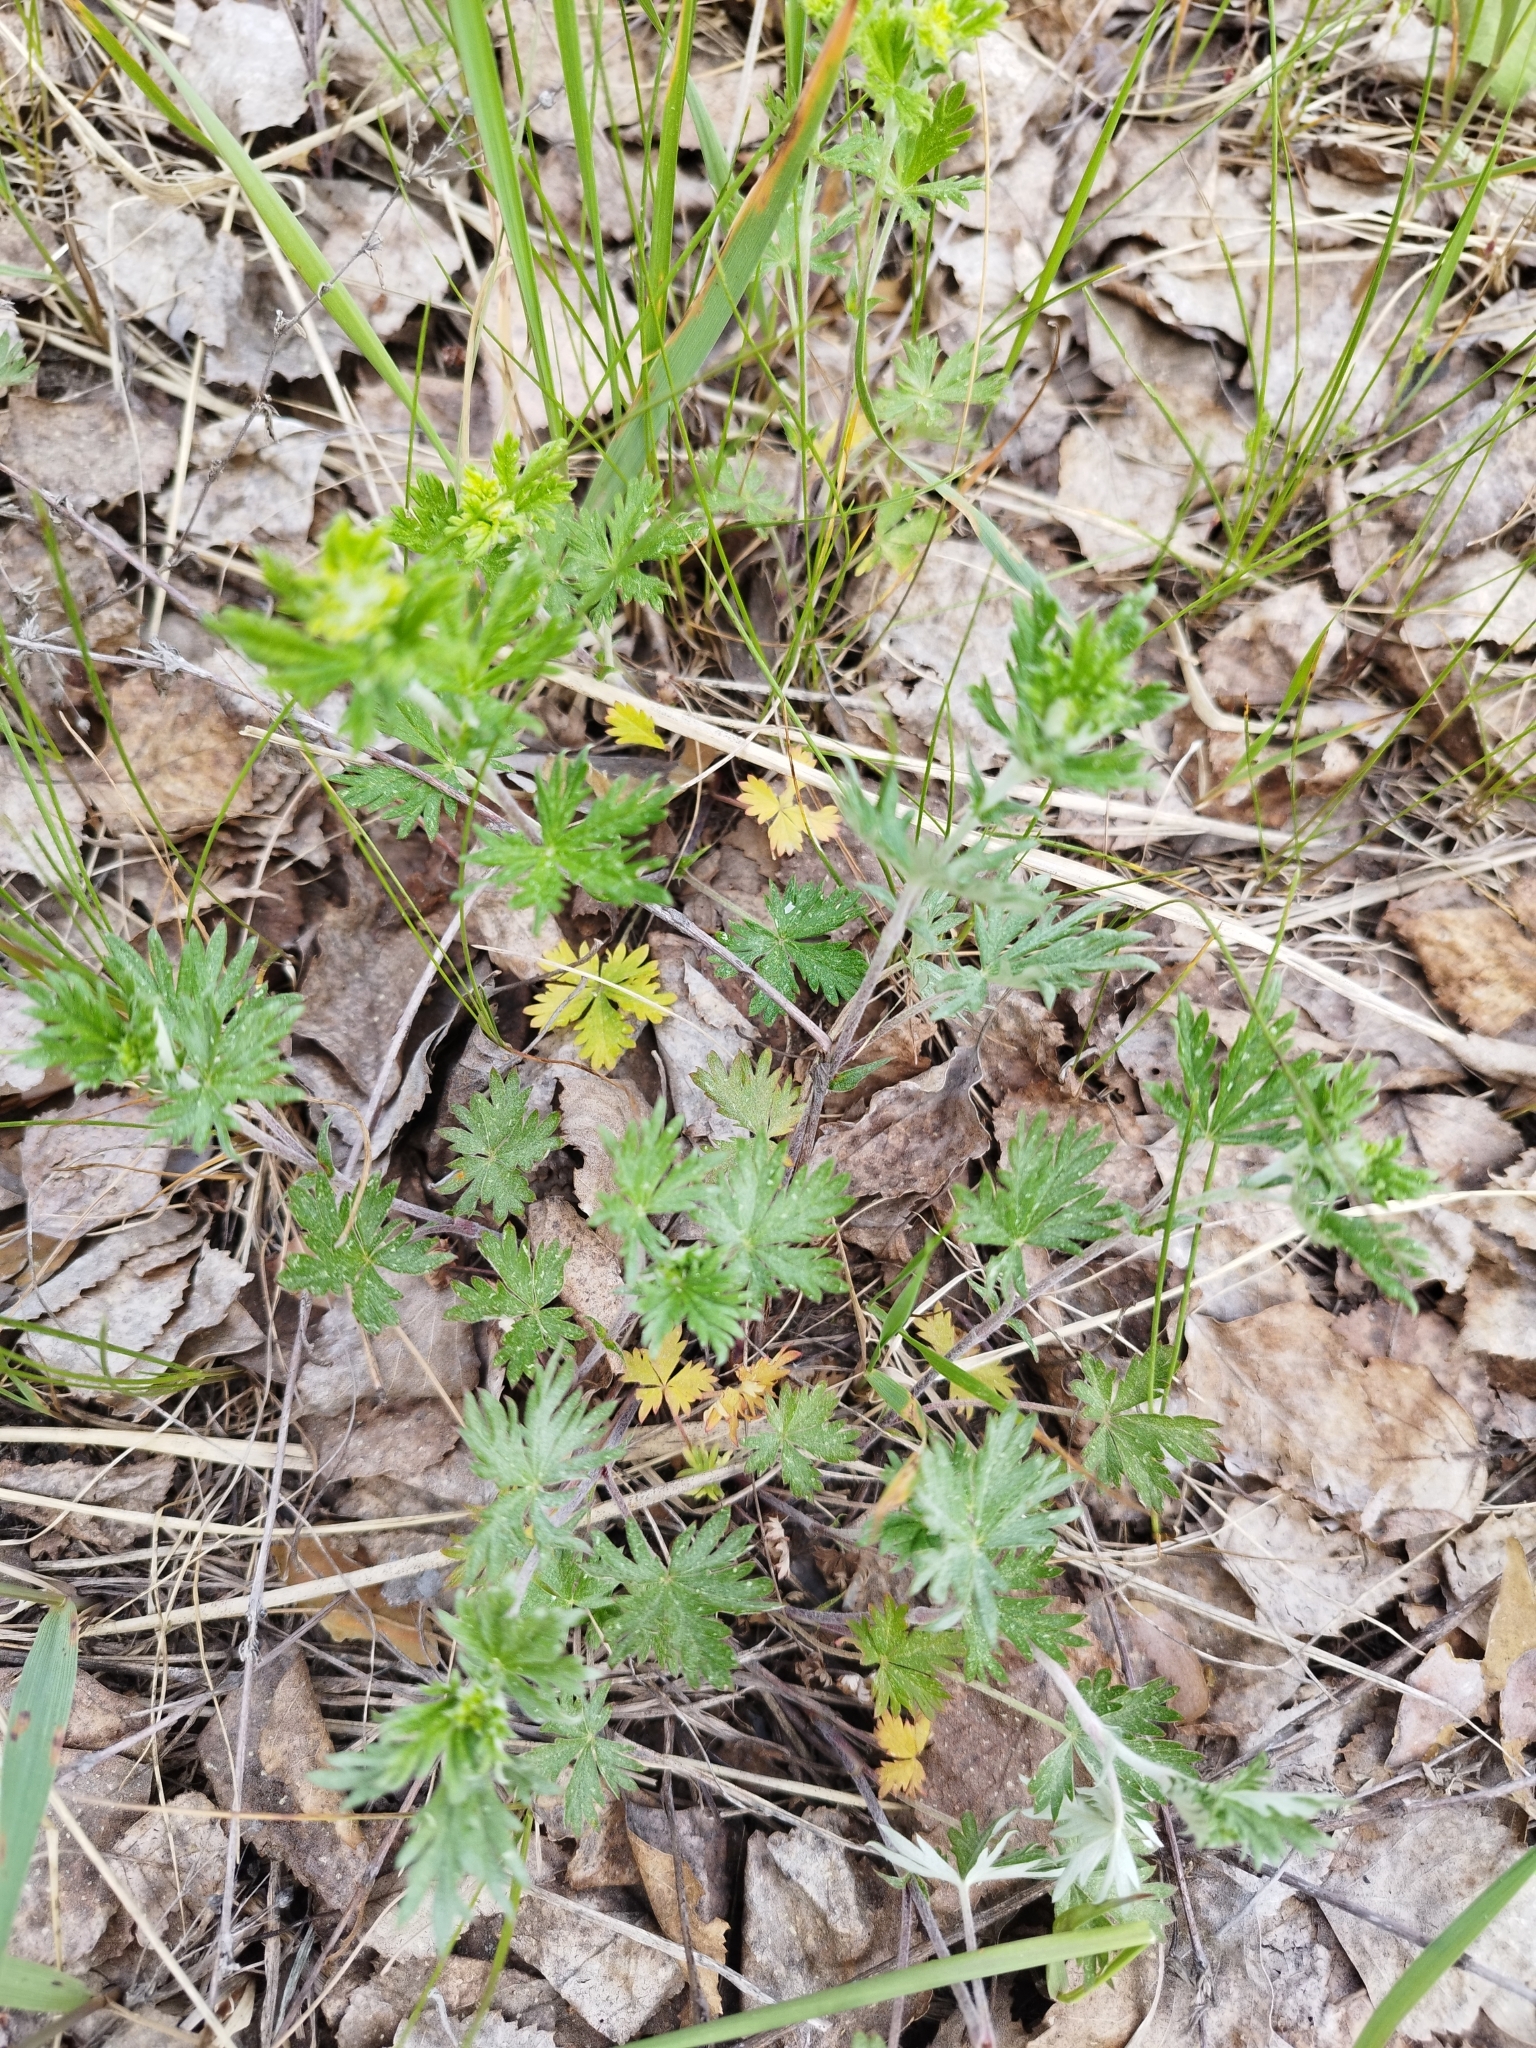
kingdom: Plantae
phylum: Tracheophyta
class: Magnoliopsida
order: Rosales
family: Rosaceae
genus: Potentilla
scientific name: Potentilla argentea
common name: Hoary cinquefoil
